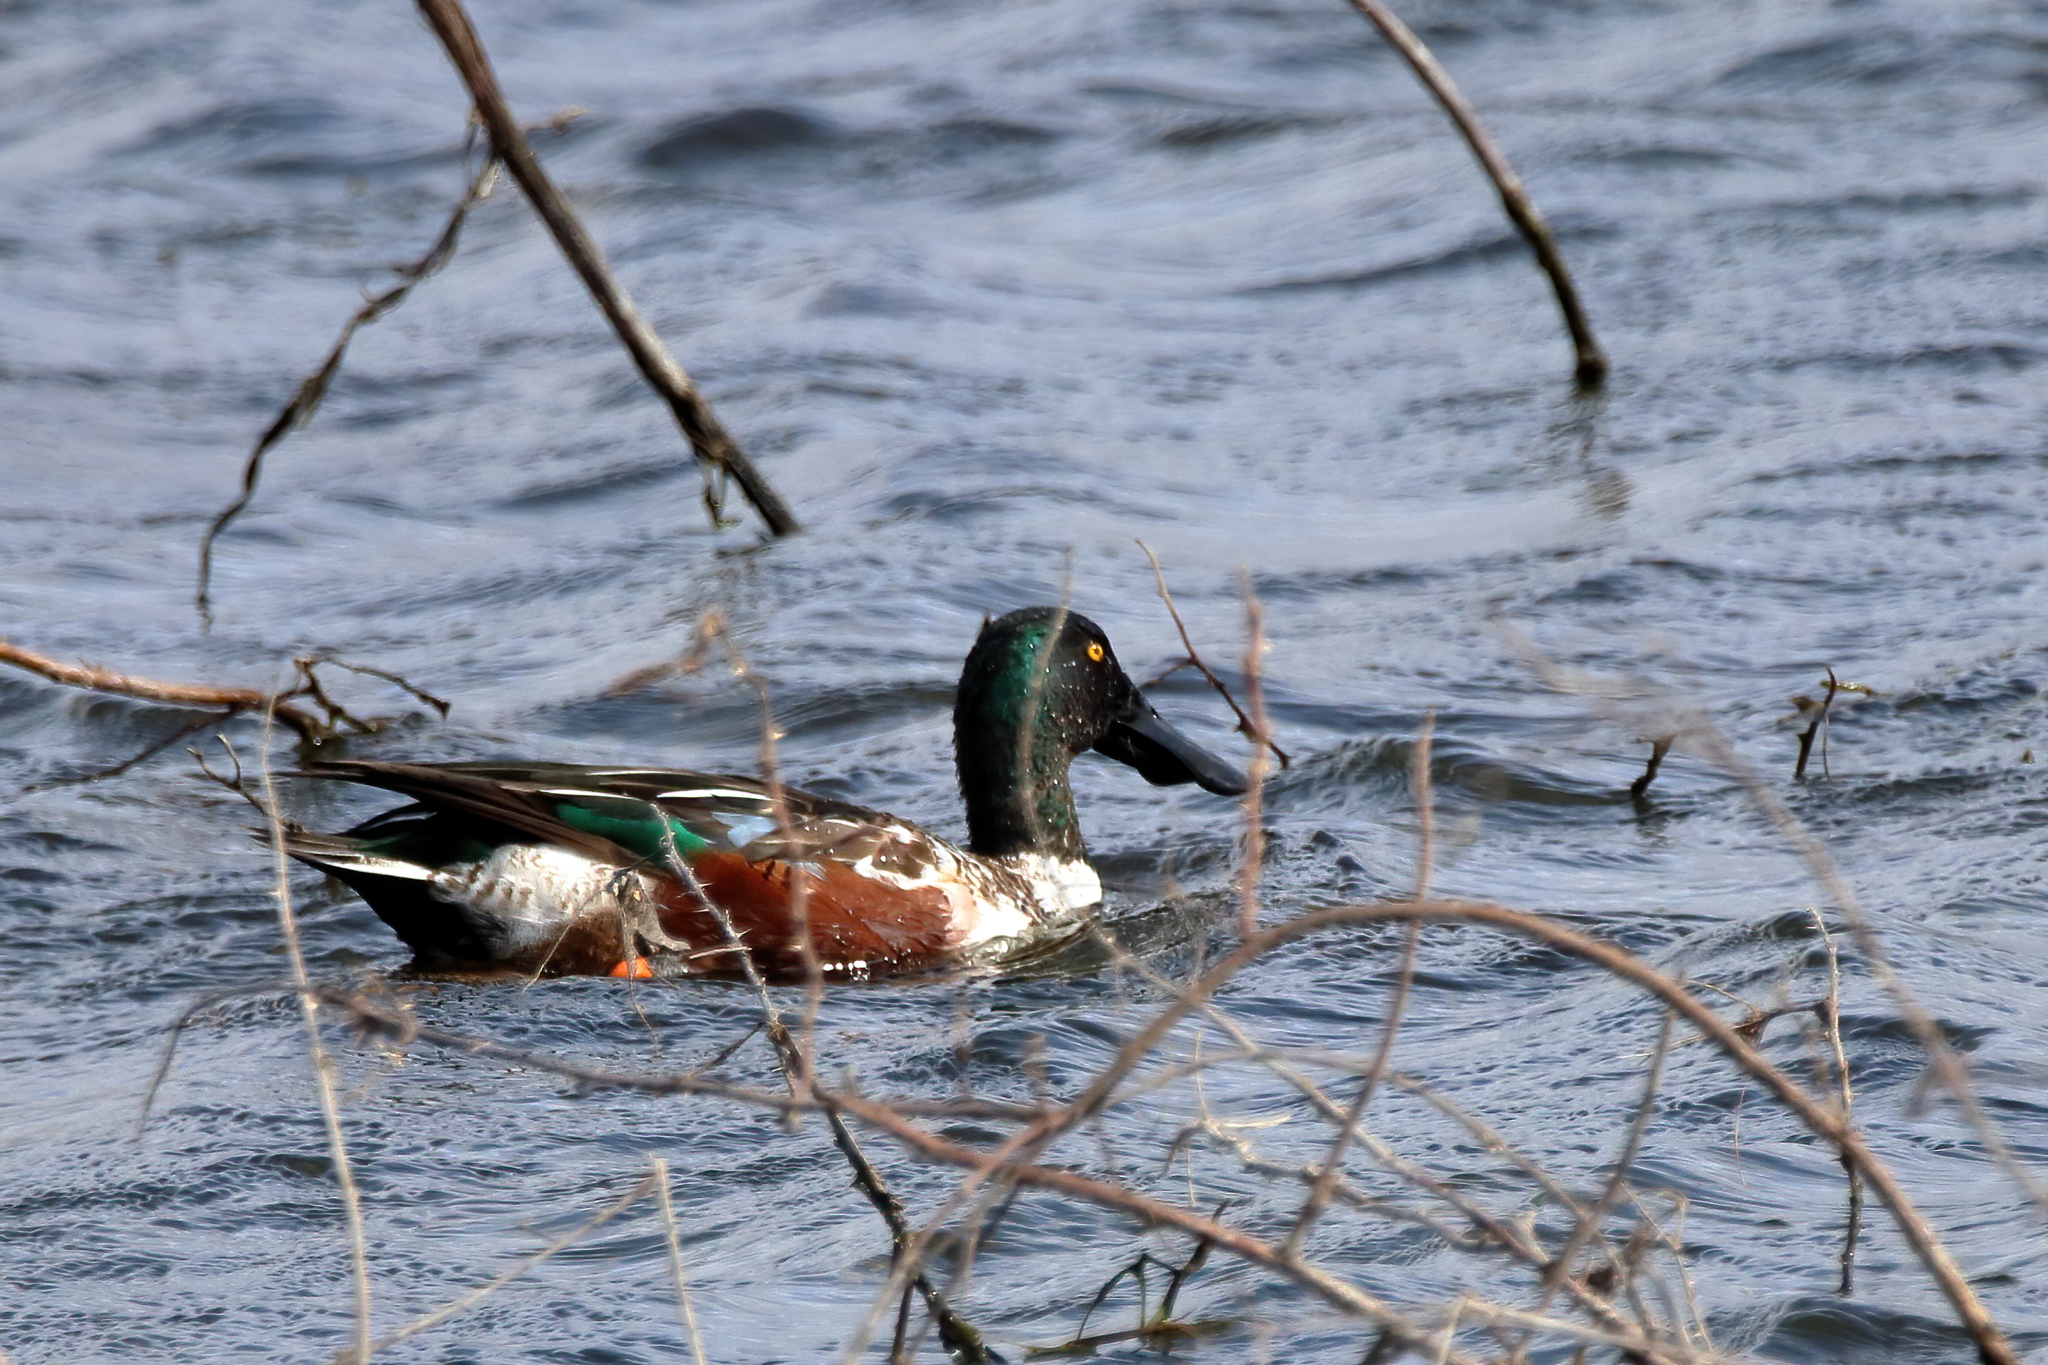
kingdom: Animalia
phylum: Chordata
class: Aves
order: Anseriformes
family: Anatidae
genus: Spatula
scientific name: Spatula clypeata
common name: Northern shoveler
